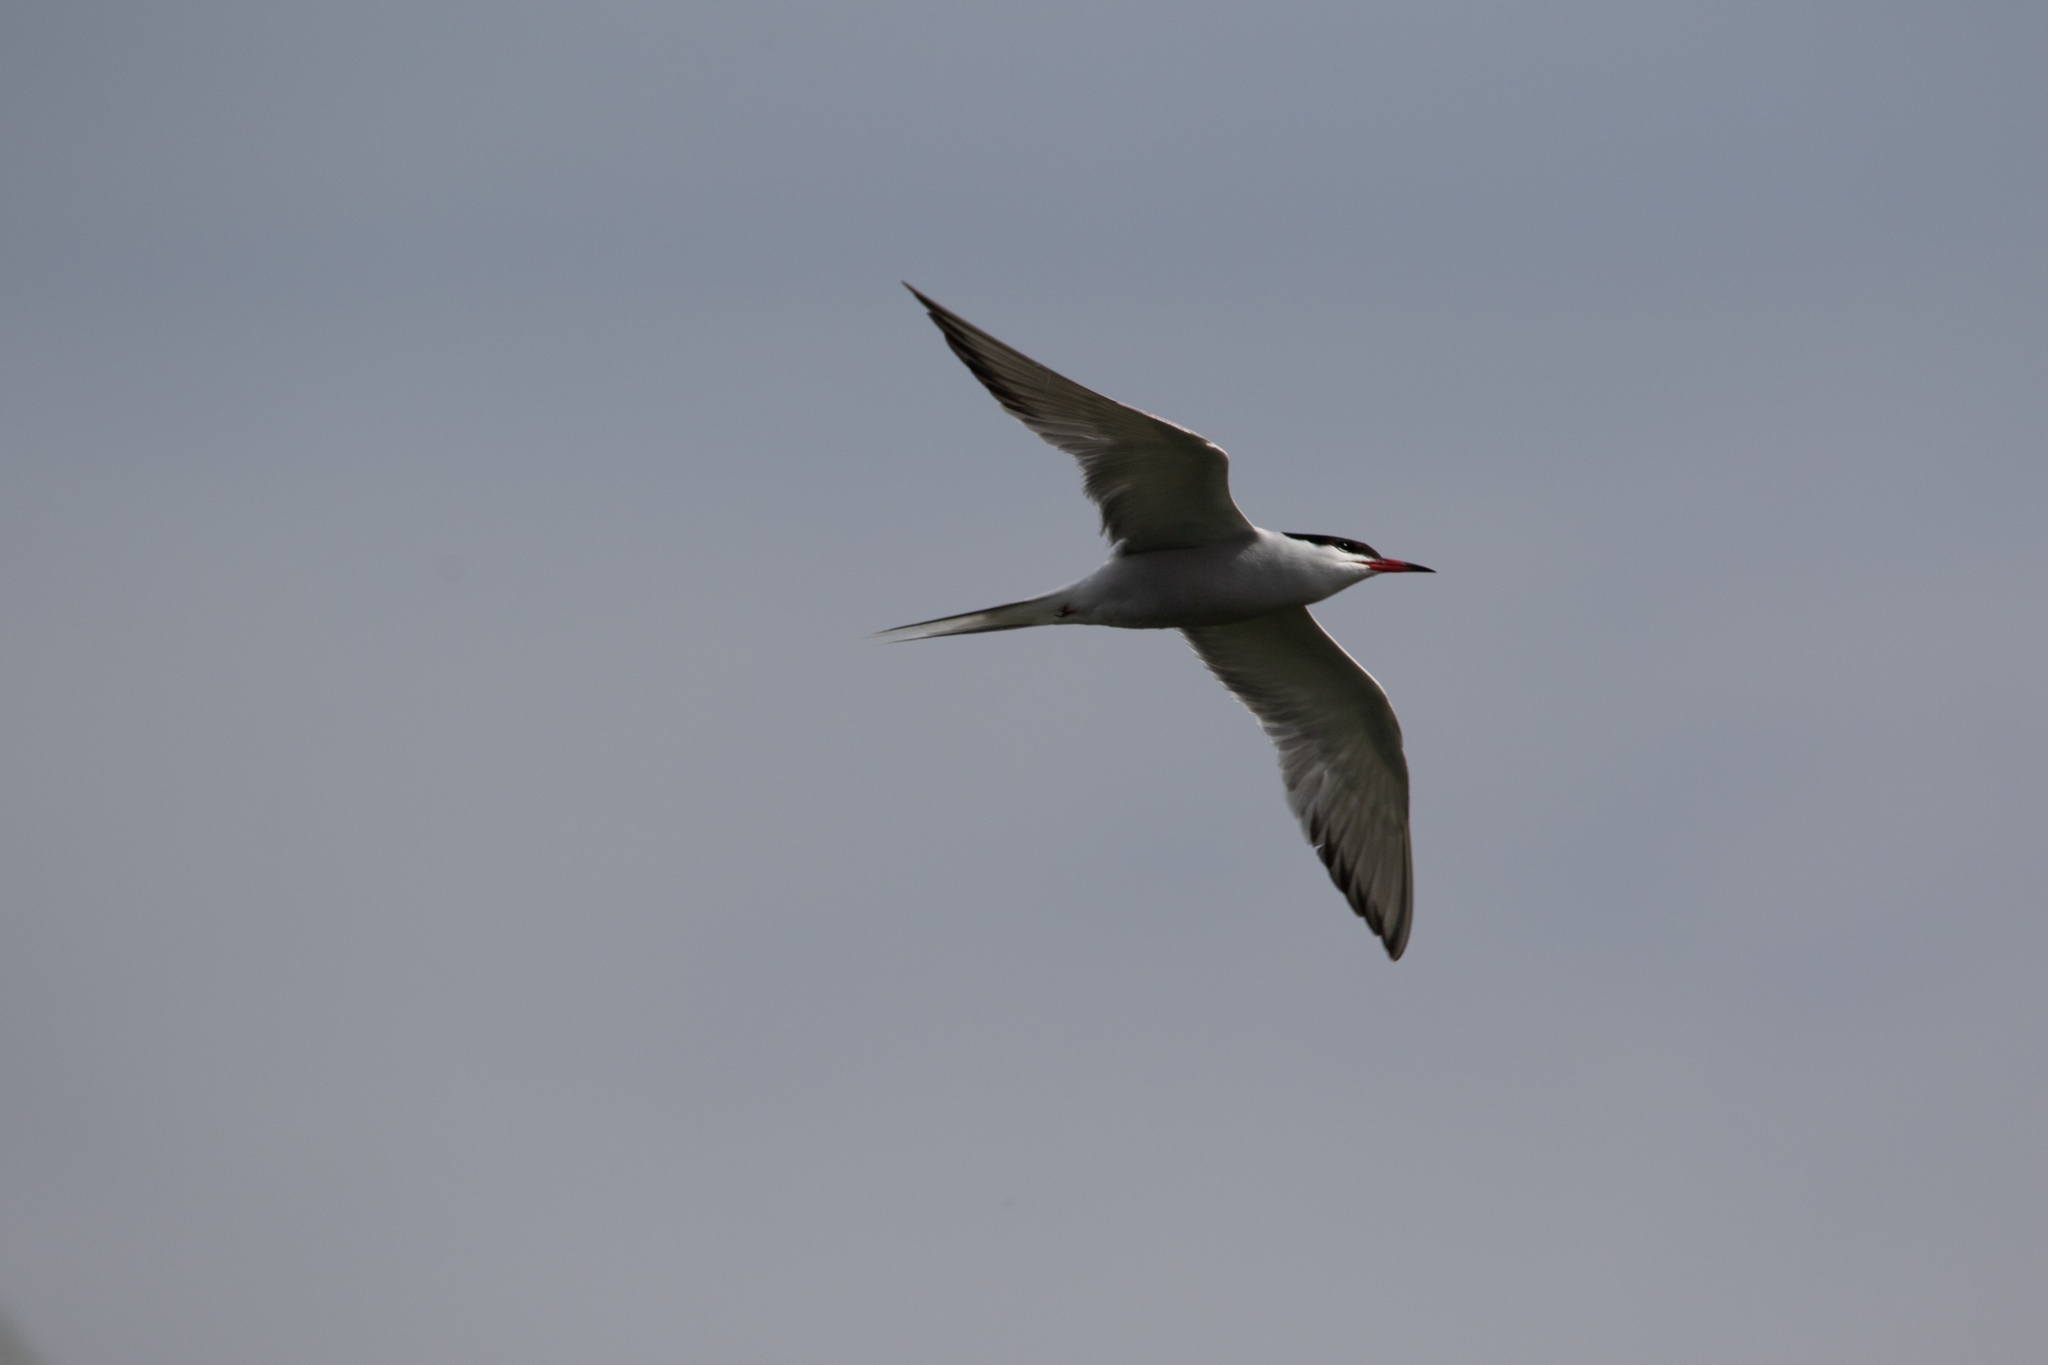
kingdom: Animalia
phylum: Chordata
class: Aves
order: Charadriiformes
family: Laridae
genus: Sterna
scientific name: Sterna hirundo
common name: Common tern
